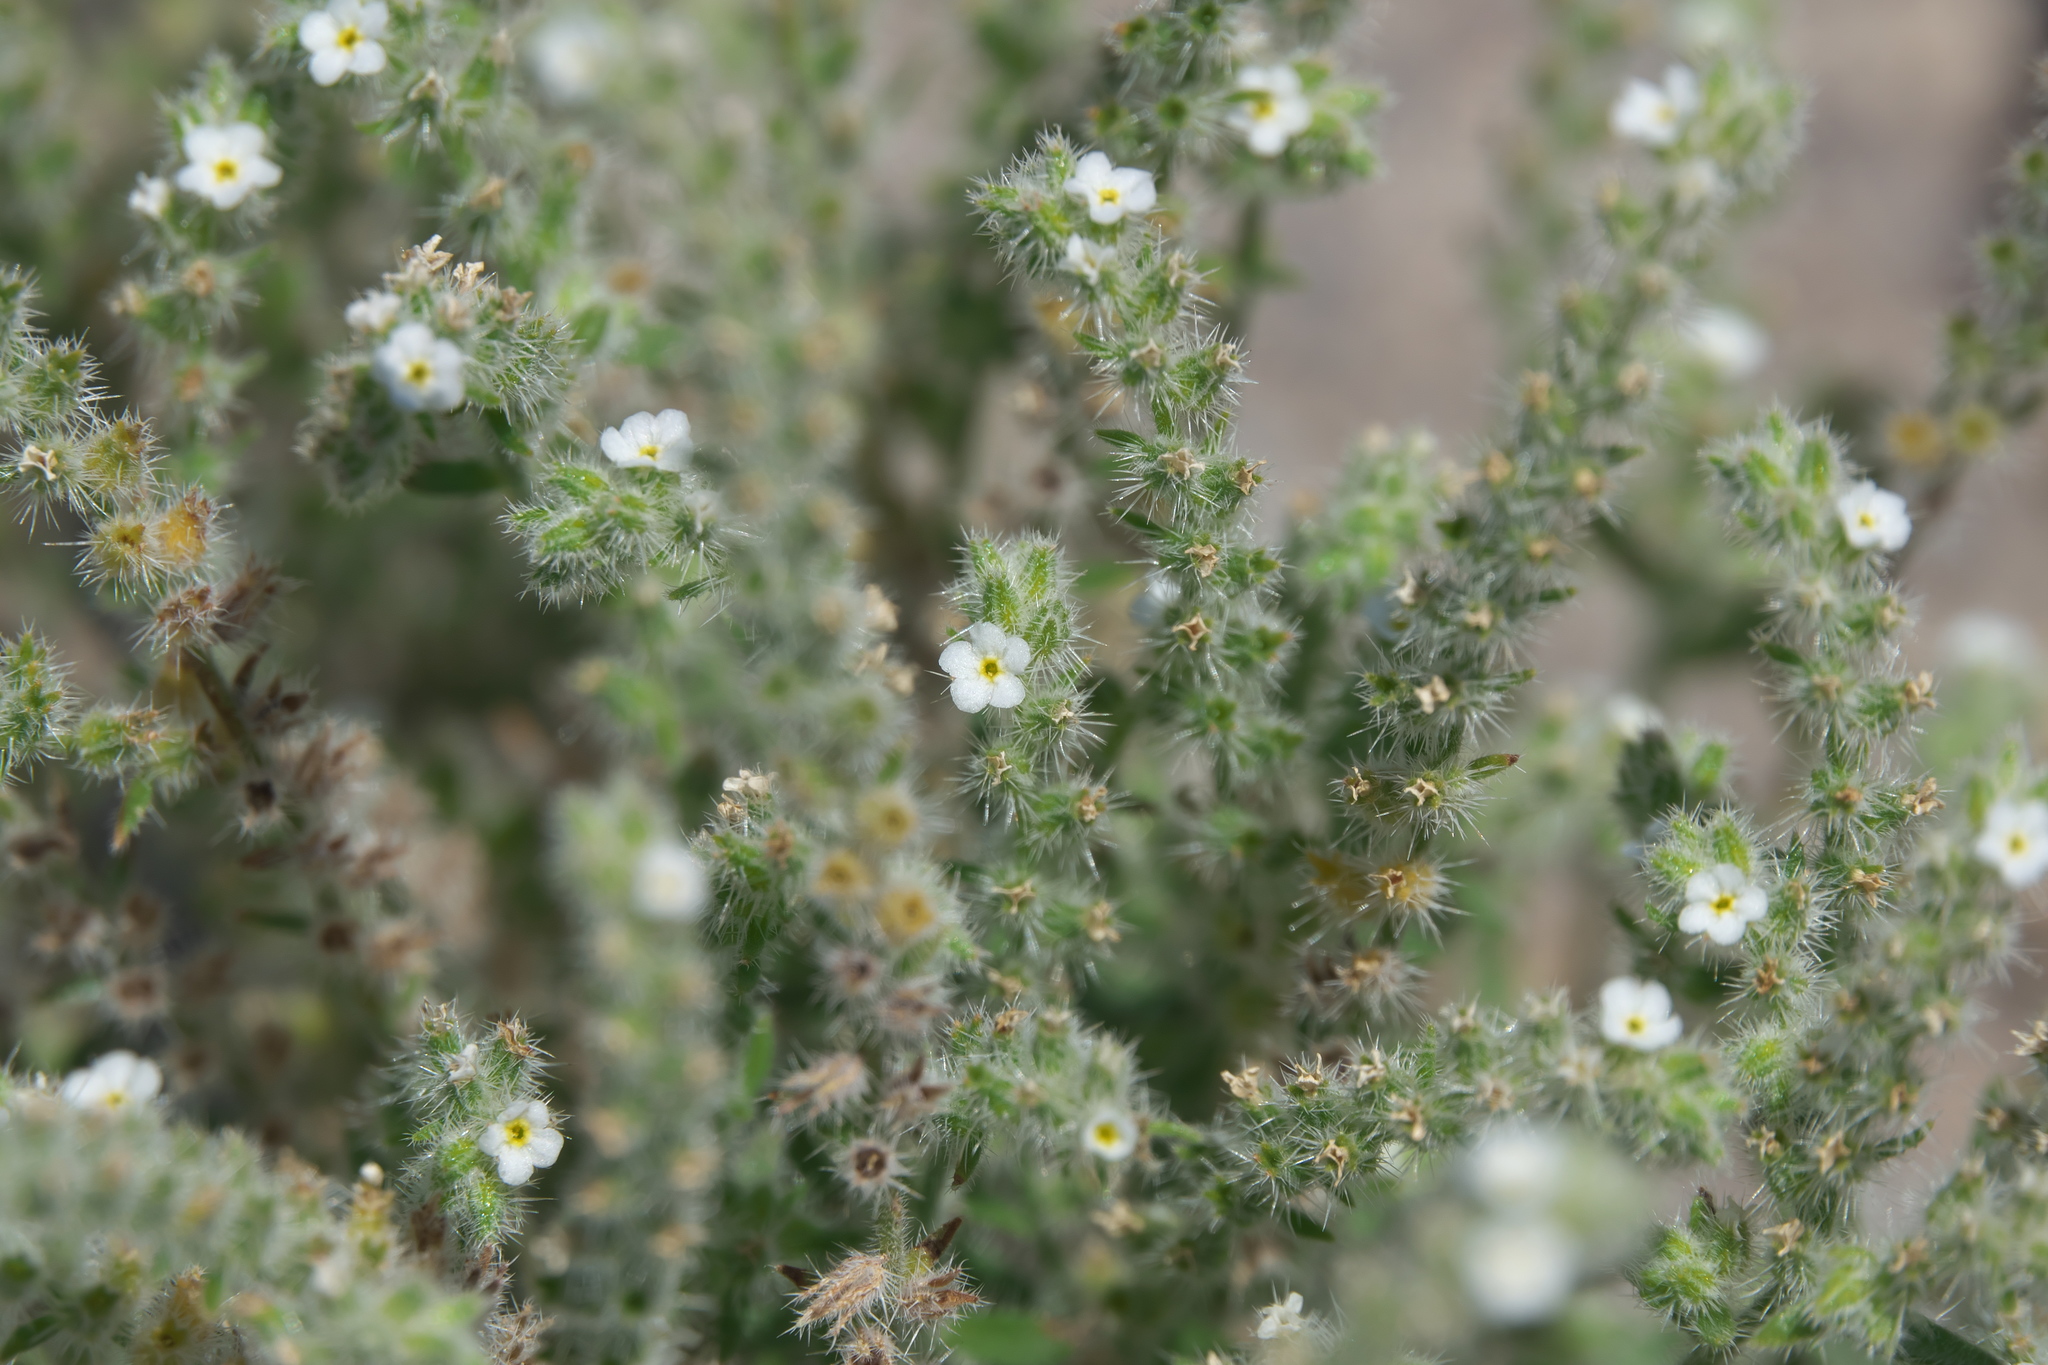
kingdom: Plantae
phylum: Tracheophyta
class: Magnoliopsida
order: Boraginales
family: Boraginaceae
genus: Johnstonella
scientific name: Johnstonella angustifolia
